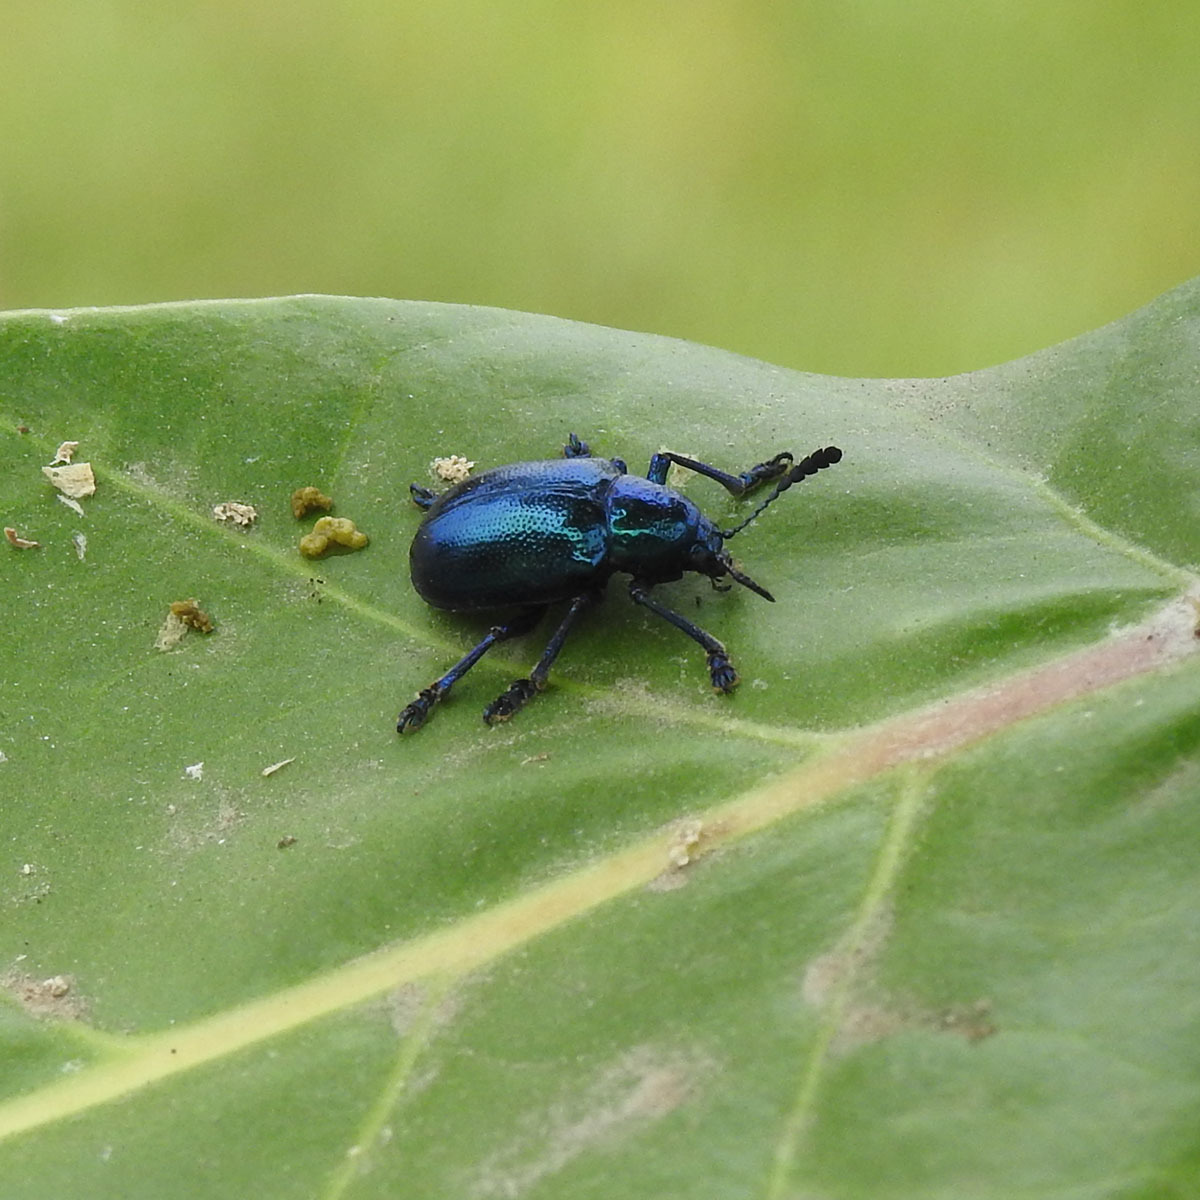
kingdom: Animalia
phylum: Arthropoda
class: Insecta
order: Coleoptera
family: Chrysomelidae
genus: Platycorynus
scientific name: Platycorynus
